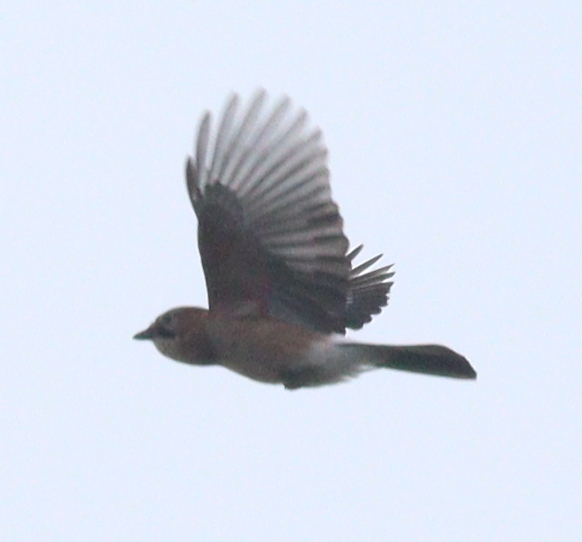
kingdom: Animalia
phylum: Chordata
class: Aves
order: Passeriformes
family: Corvidae
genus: Garrulus
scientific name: Garrulus glandarius
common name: Eurasian jay
